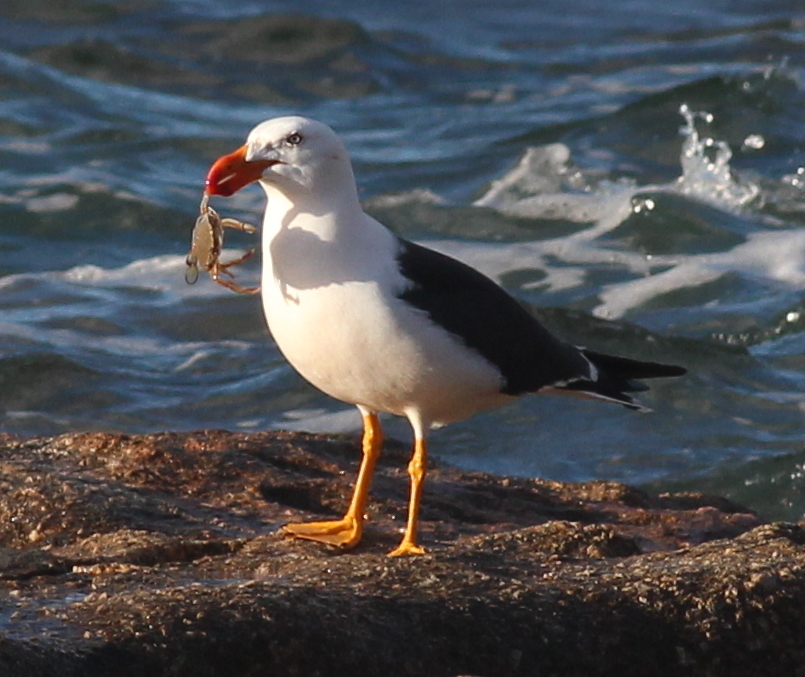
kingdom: Animalia
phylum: Chordata
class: Aves
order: Charadriiformes
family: Laridae
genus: Larus
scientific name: Larus pacificus
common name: Pacific gull
